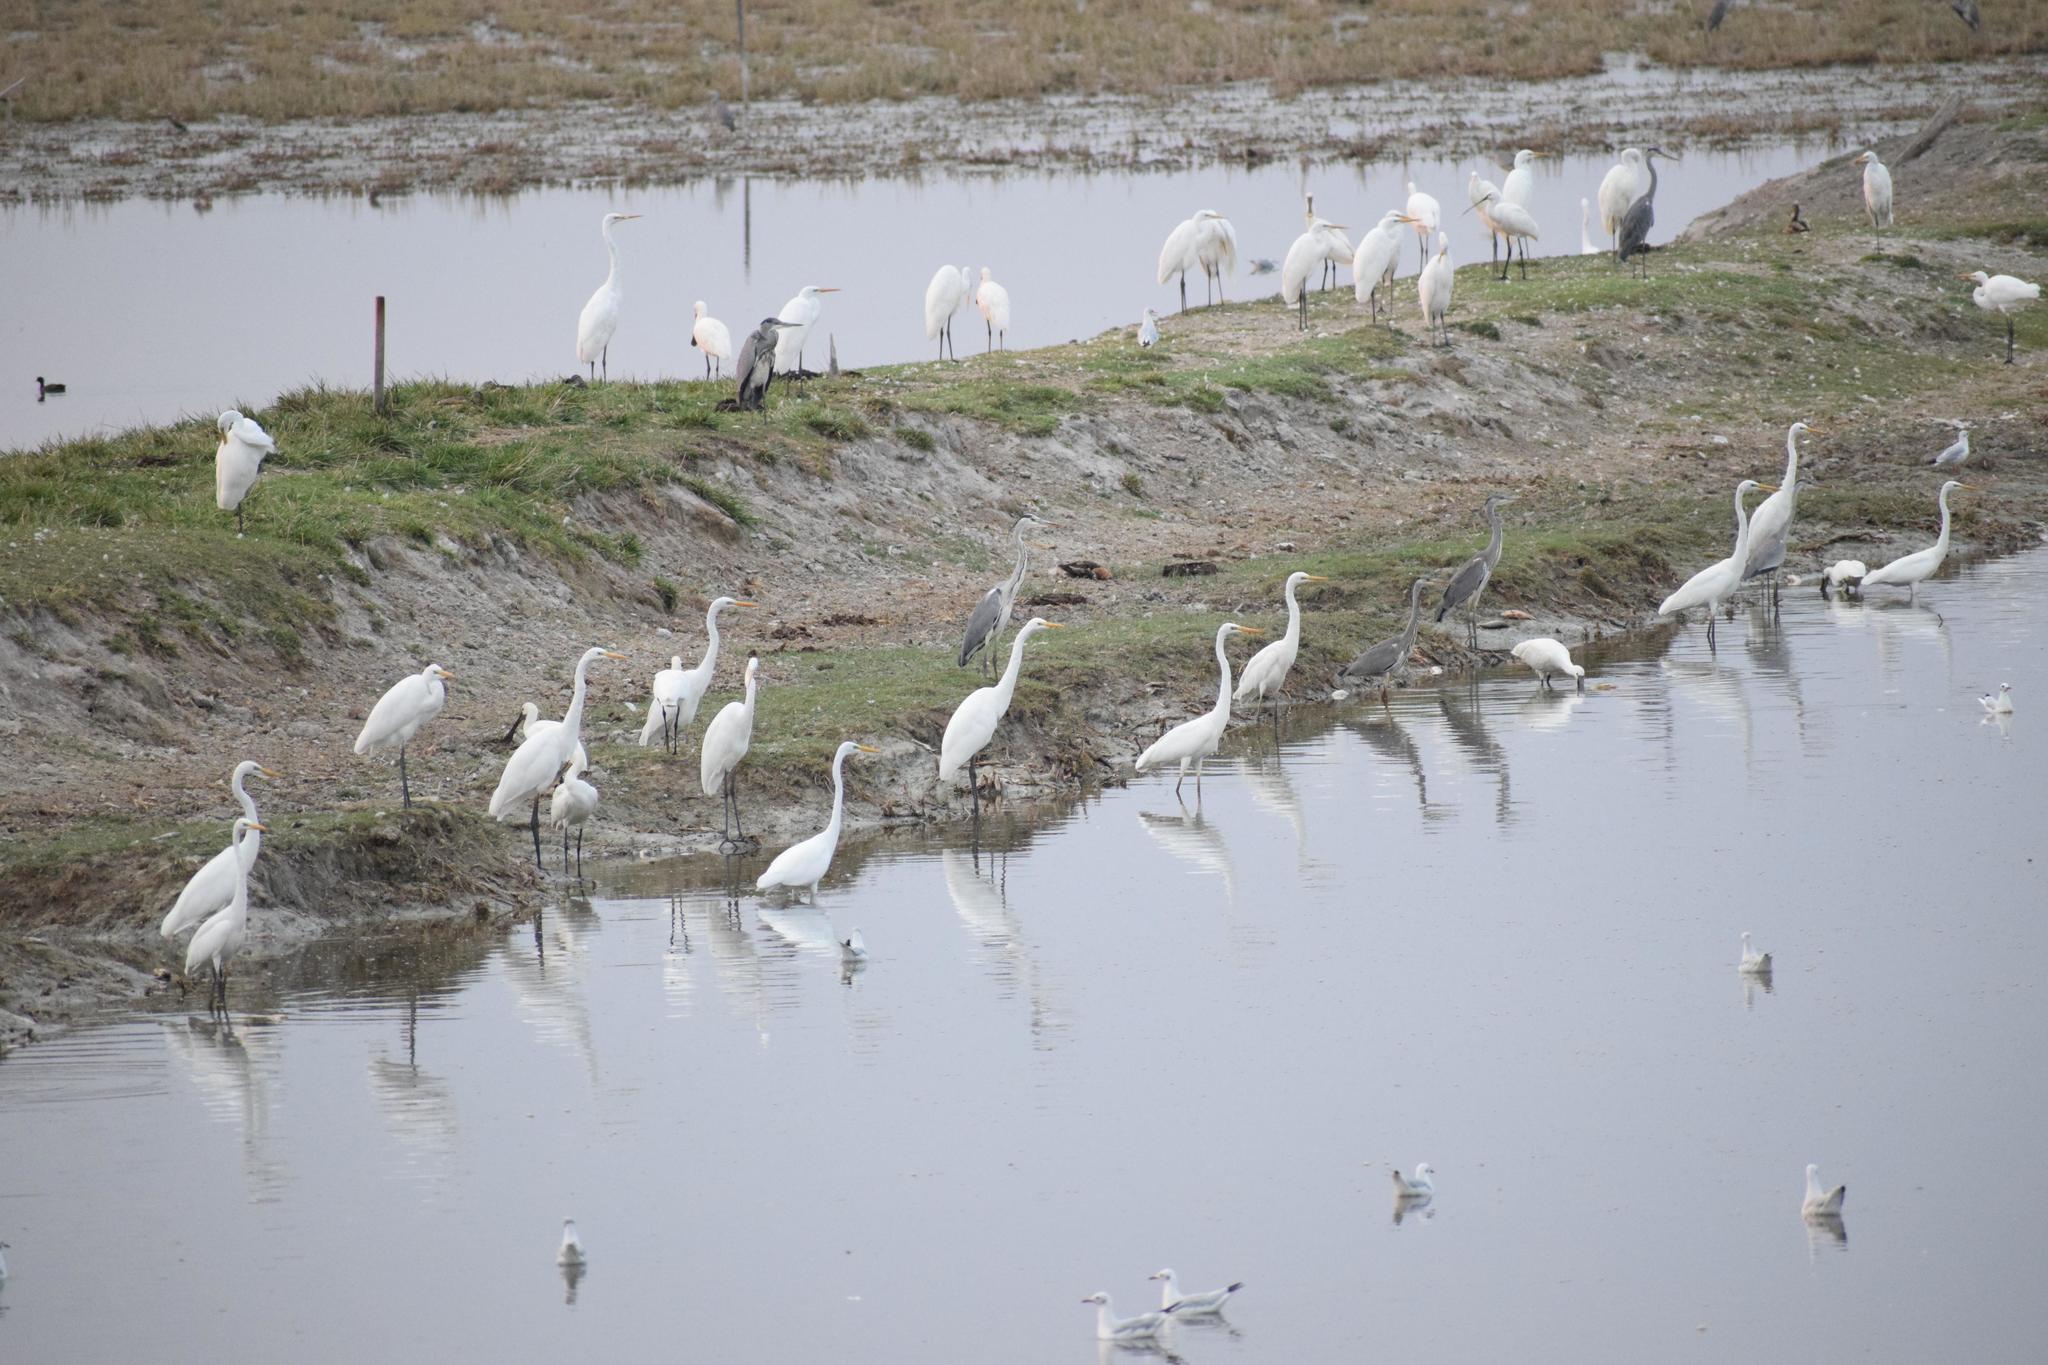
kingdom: Animalia
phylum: Chordata
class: Aves
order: Pelecaniformes
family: Ardeidae
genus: Ardea
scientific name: Ardea alba
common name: Great egret
